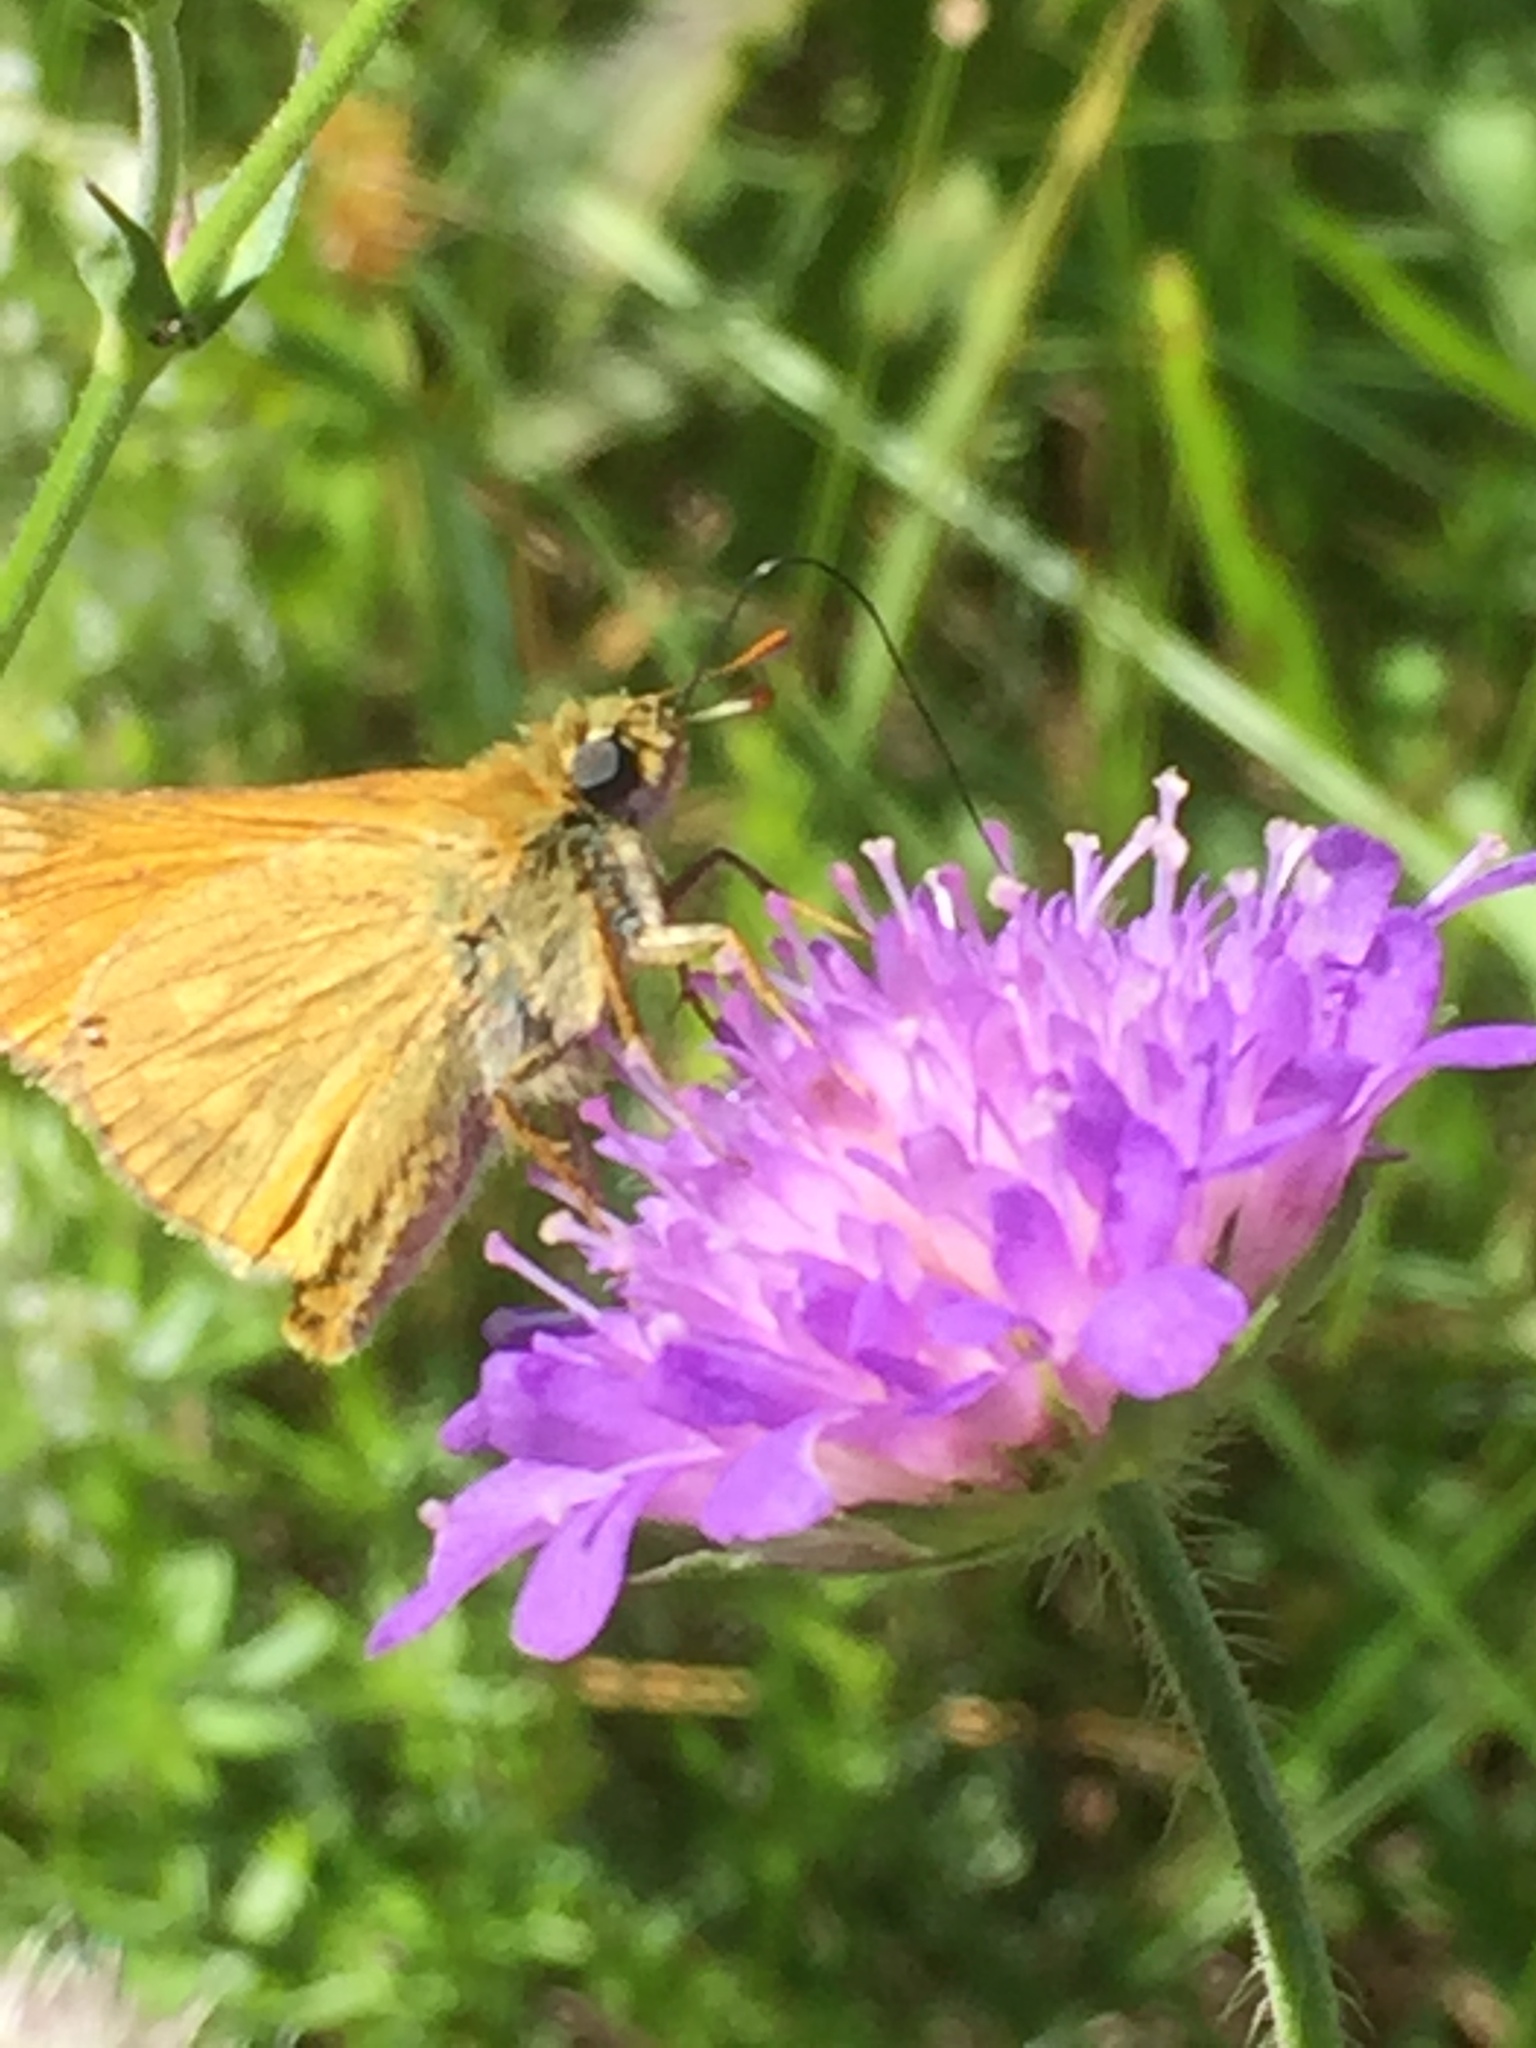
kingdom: Animalia
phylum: Arthropoda
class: Insecta
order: Lepidoptera
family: Hesperiidae
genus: Ochlodes
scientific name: Ochlodes venata
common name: Large skipper
